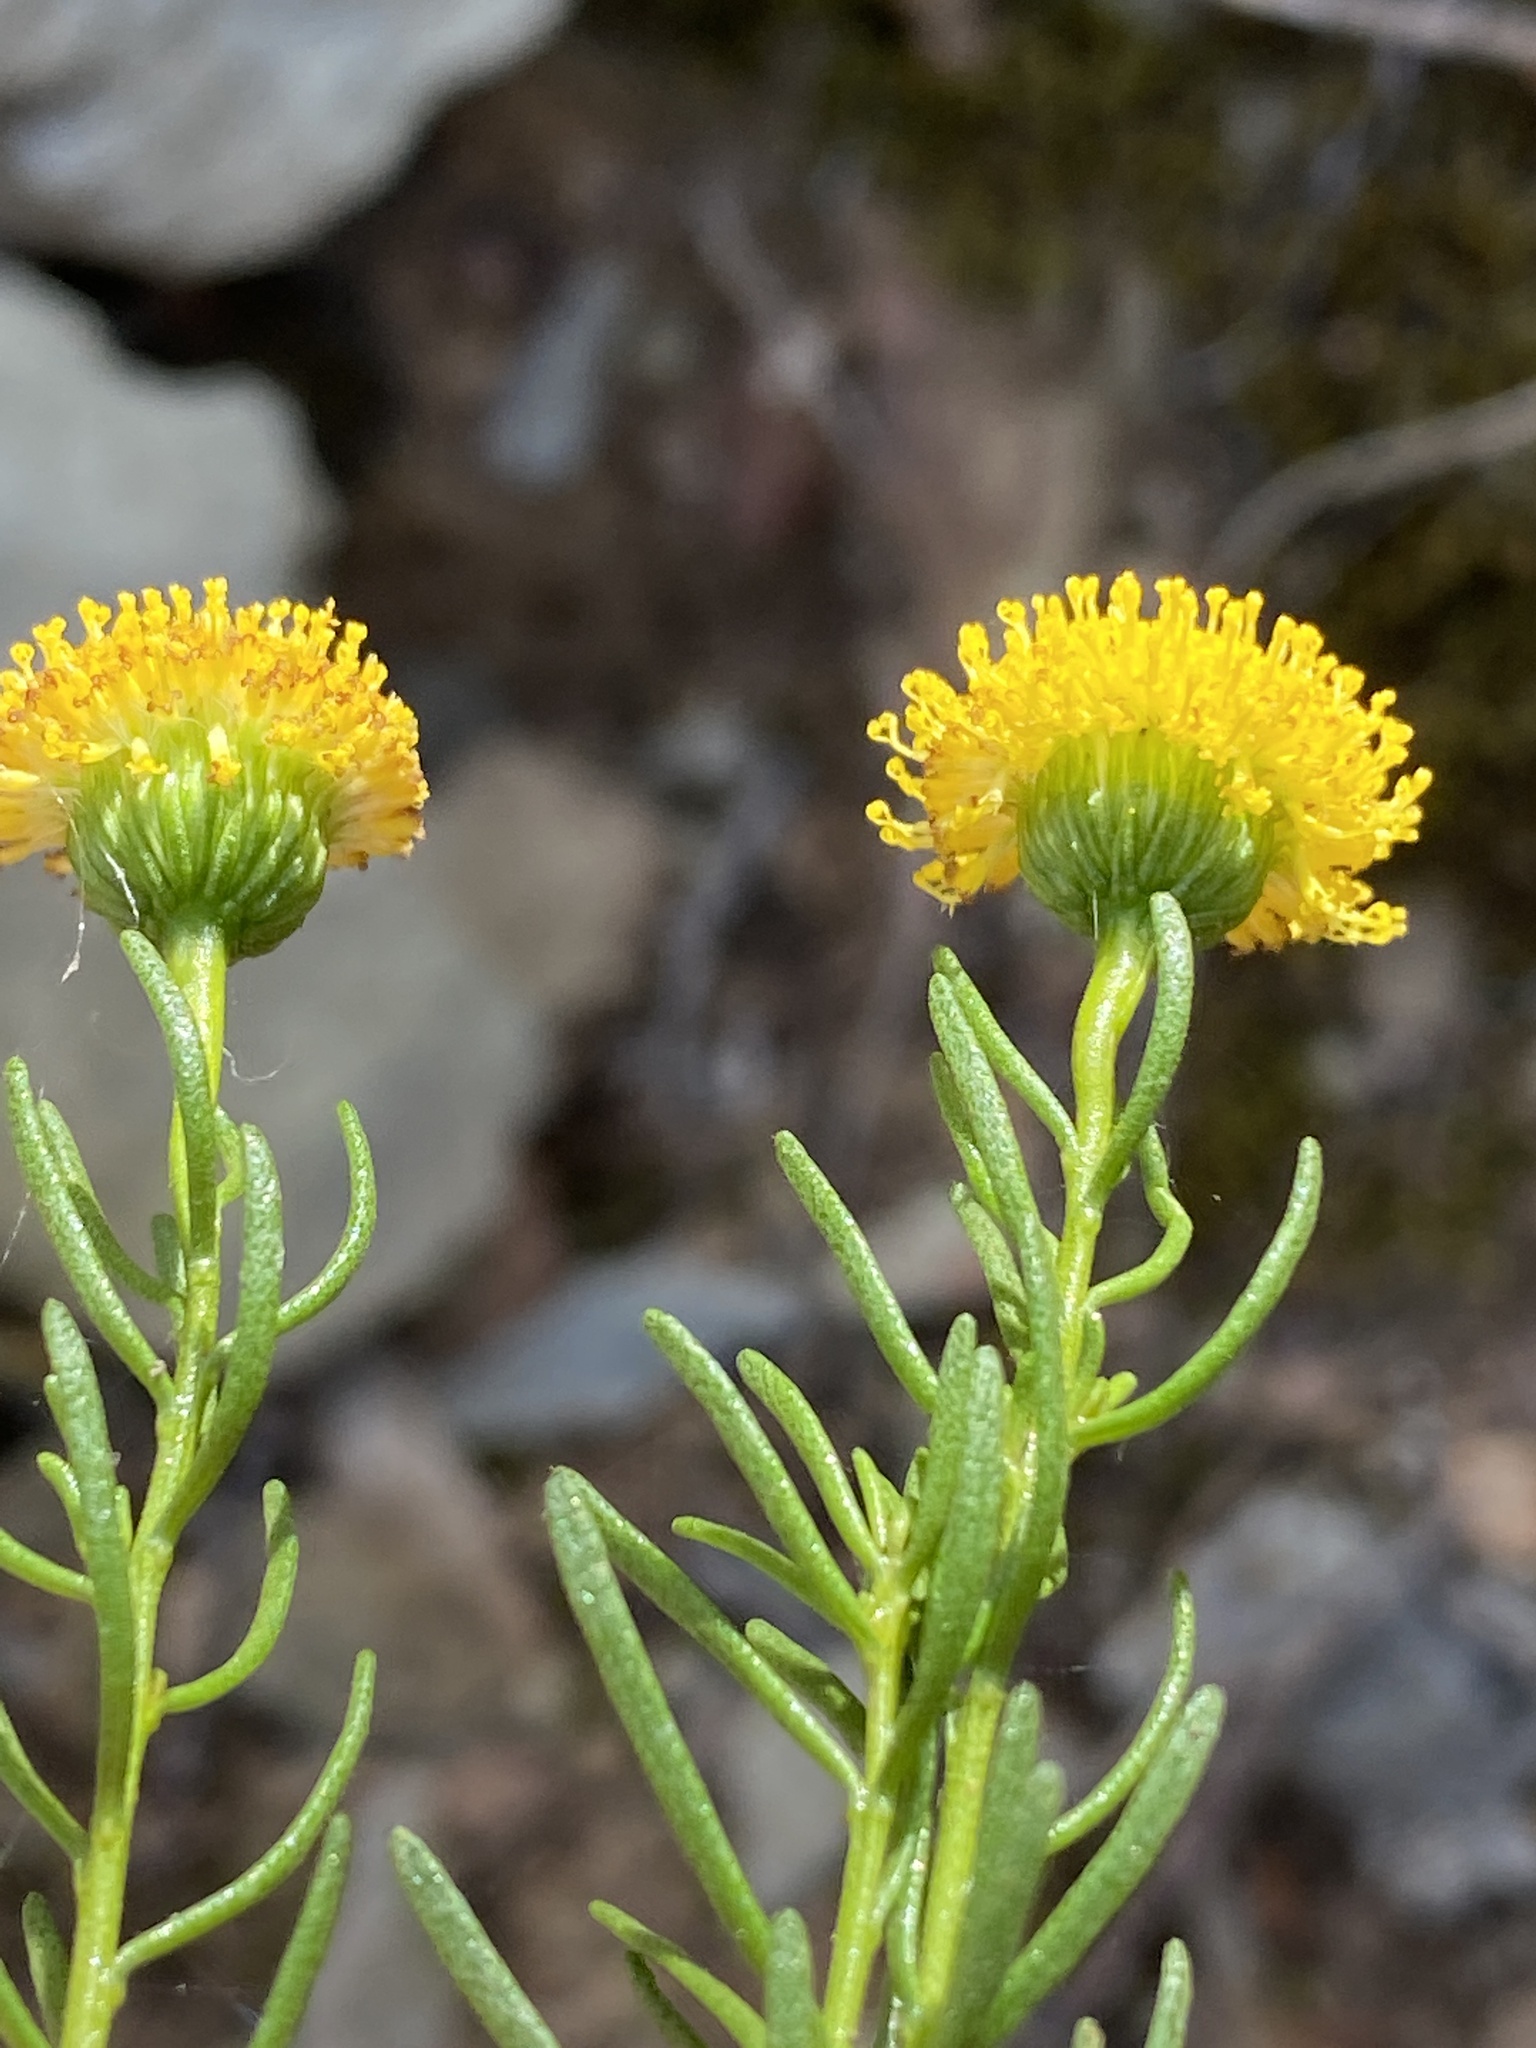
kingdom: Plantae
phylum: Tracheophyta
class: Magnoliopsida
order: Asterales
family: Asteraceae
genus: Chrysocoma
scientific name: Chrysocoma ciliata
